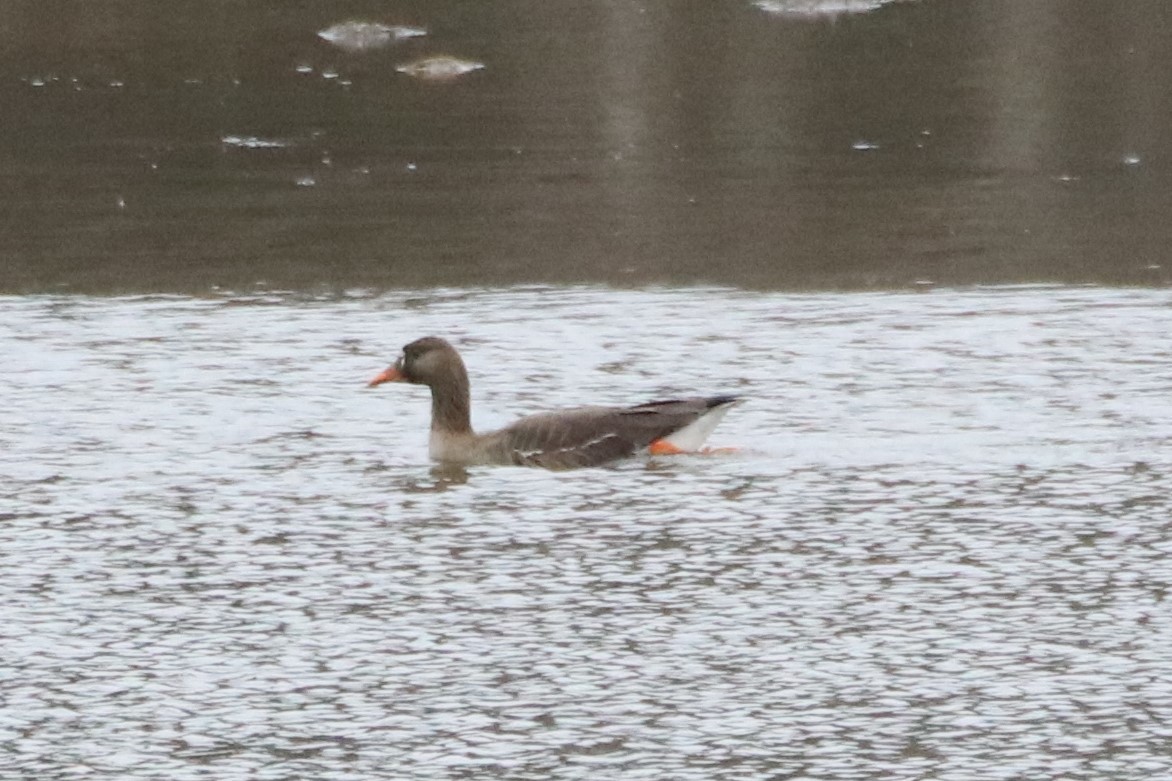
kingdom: Animalia
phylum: Chordata
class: Aves
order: Anseriformes
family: Anatidae
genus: Anser
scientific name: Anser albifrons
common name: Greater white-fronted goose
